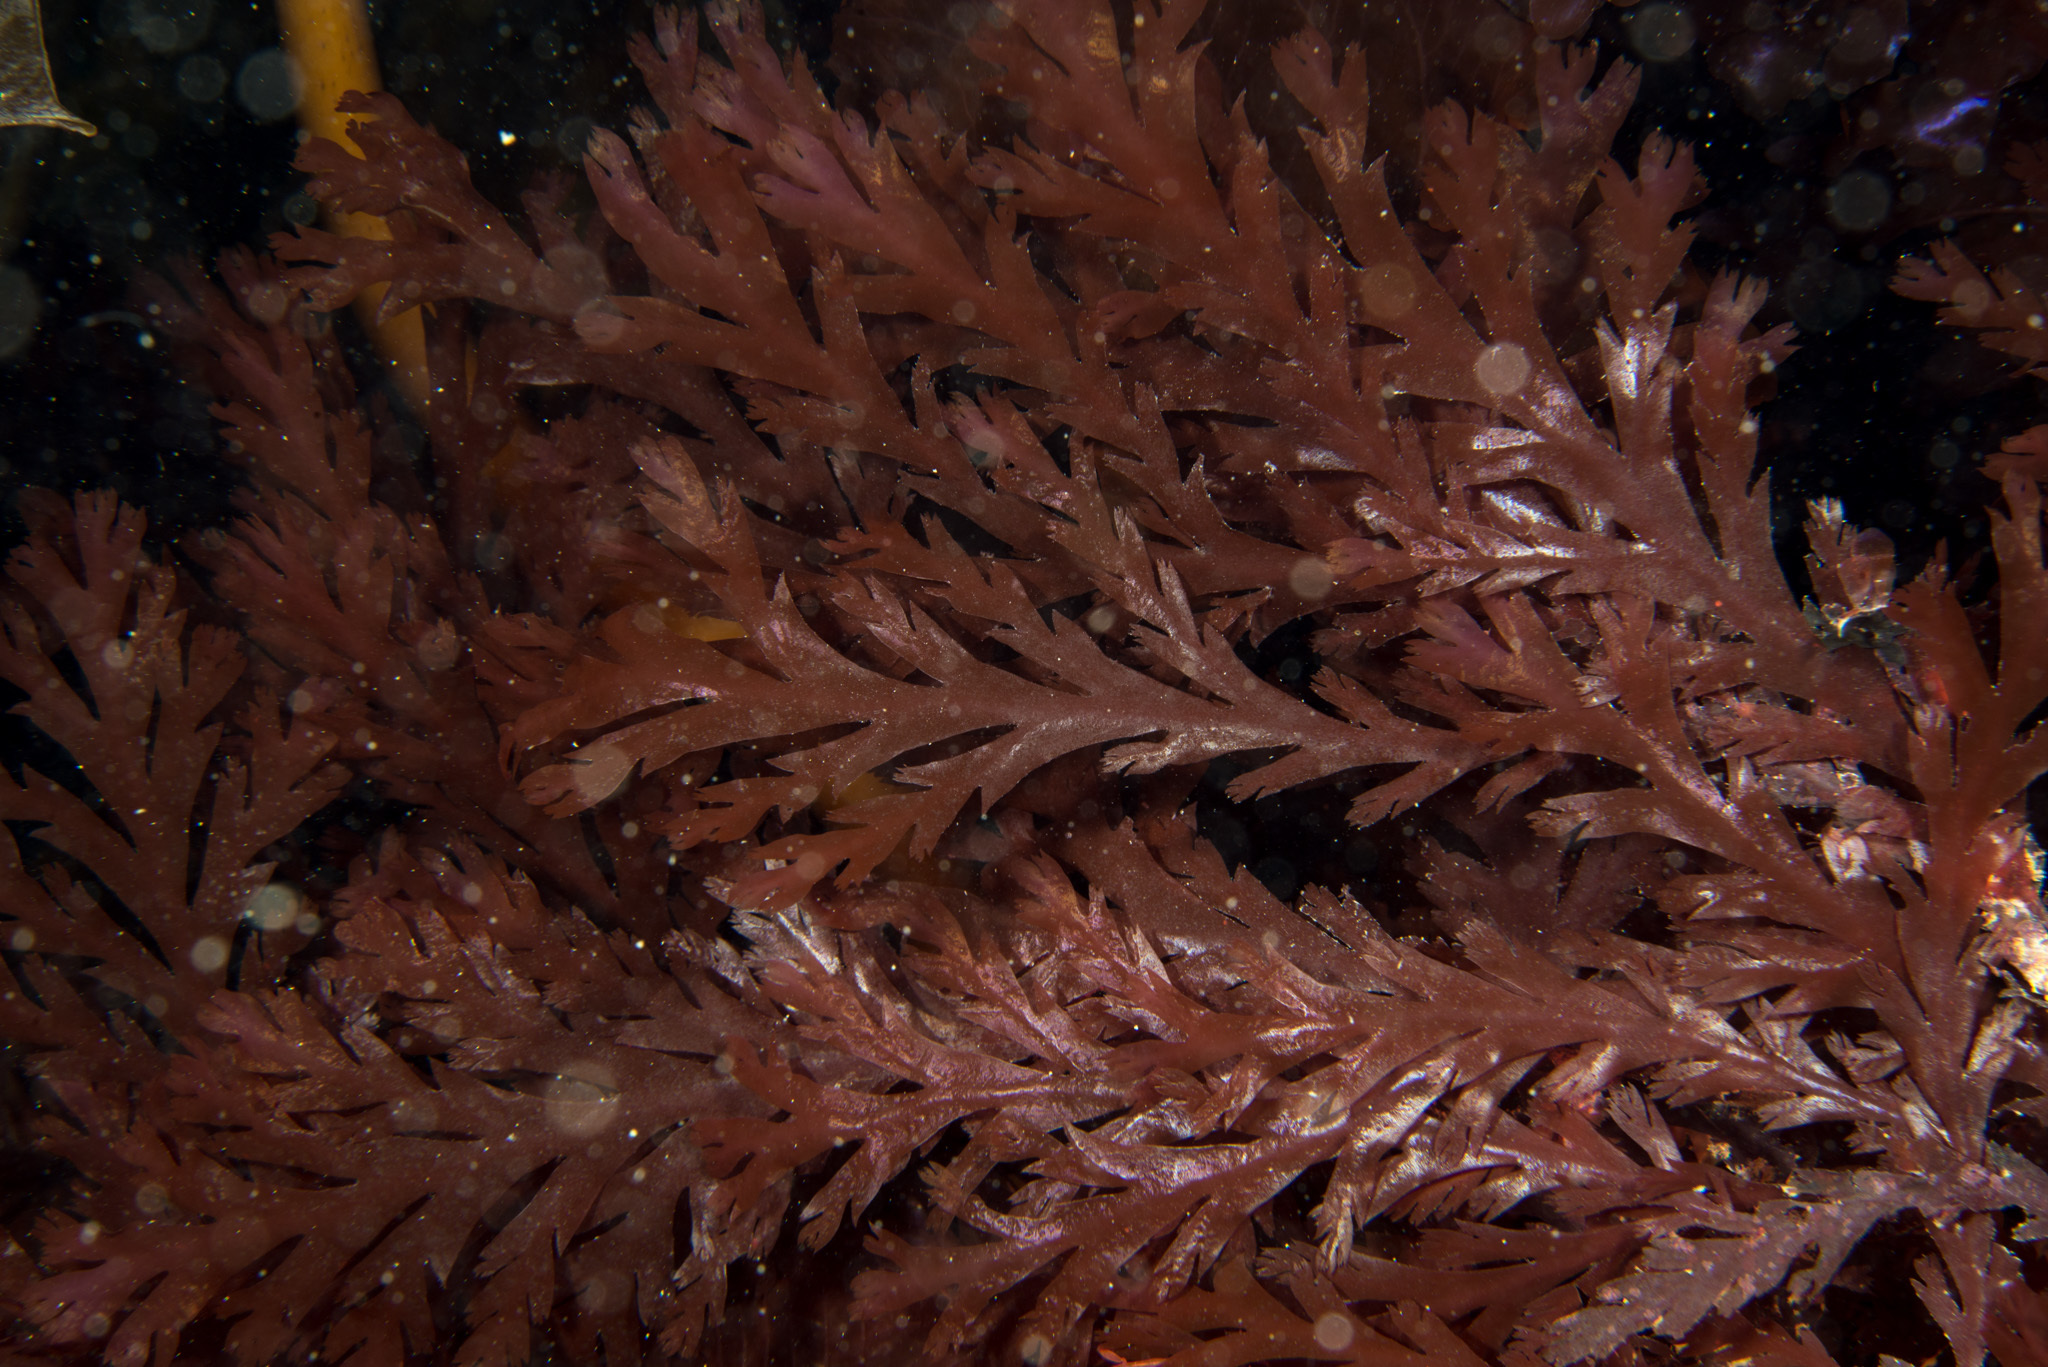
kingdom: Plantae
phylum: Rhodophyta
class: Florideophyceae
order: Ceramiales
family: Rhodomelaceae
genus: Odonthalia
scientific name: Odonthalia dentata
